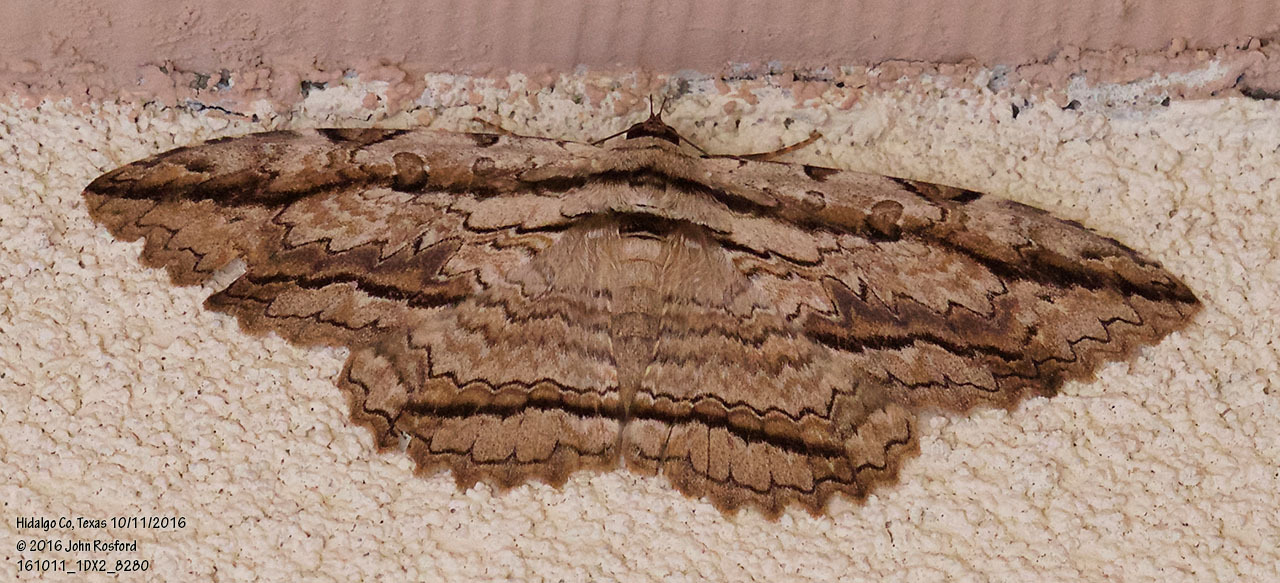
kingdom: Animalia
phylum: Arthropoda
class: Insecta
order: Lepidoptera
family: Erebidae
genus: Thysania
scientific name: Thysania zenobia
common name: Owl moth
